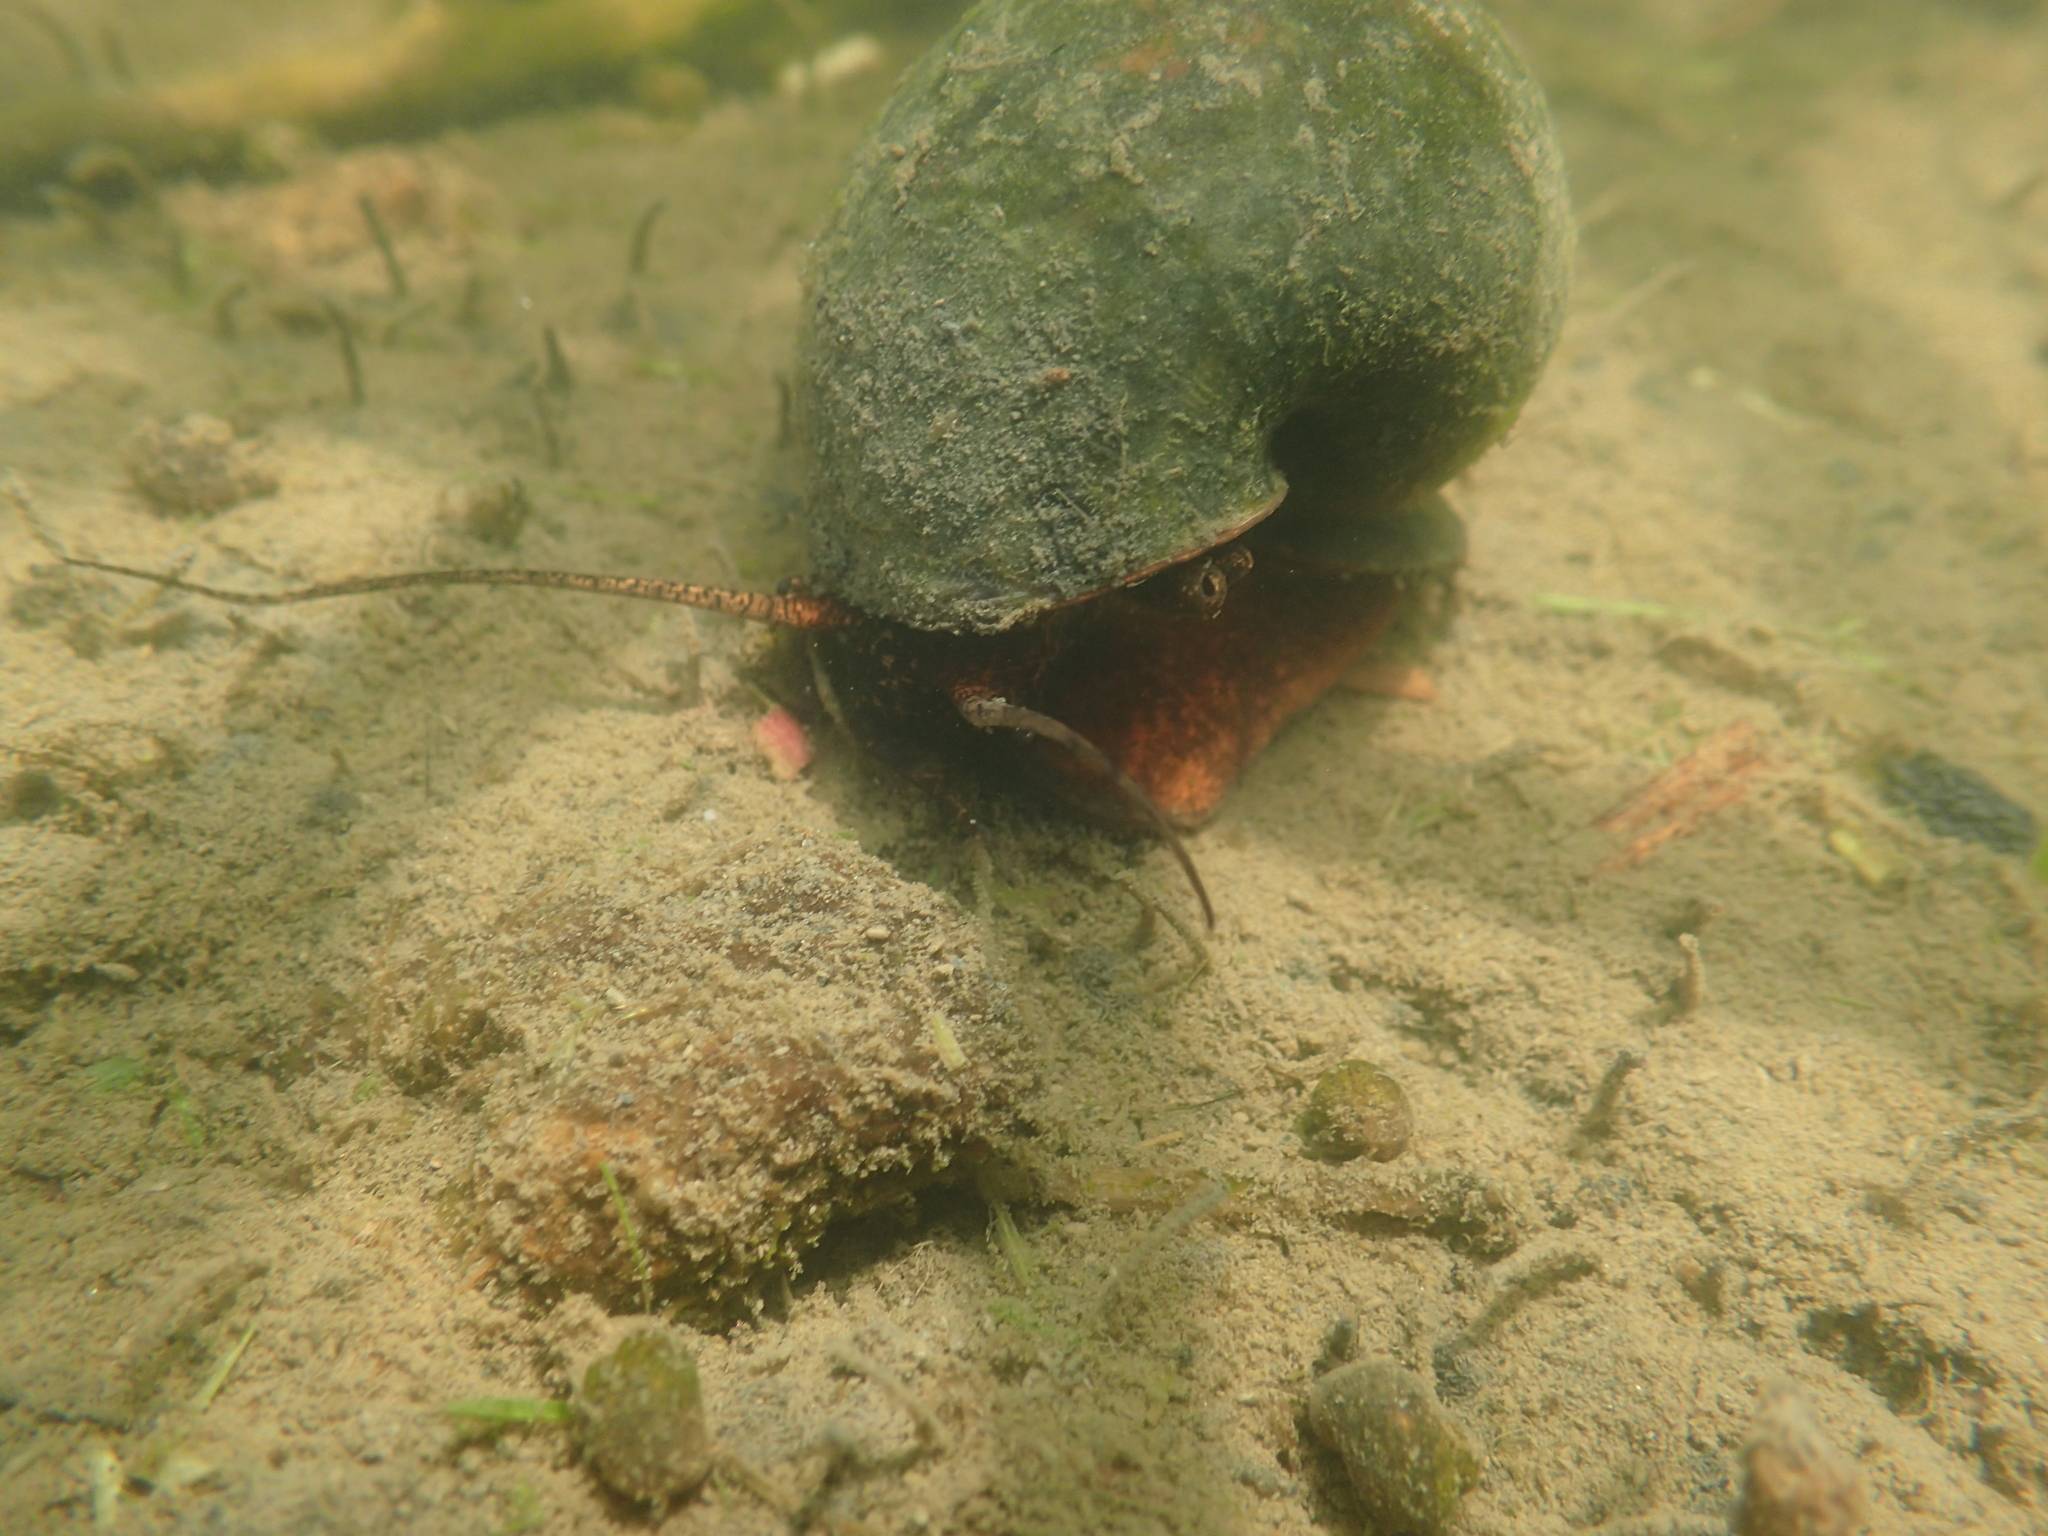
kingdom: Animalia
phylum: Mollusca
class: Gastropoda
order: Architaenioglossa
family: Ampullariidae
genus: Pomacea
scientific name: Pomacea canaliculata
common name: Channeled applesnail
